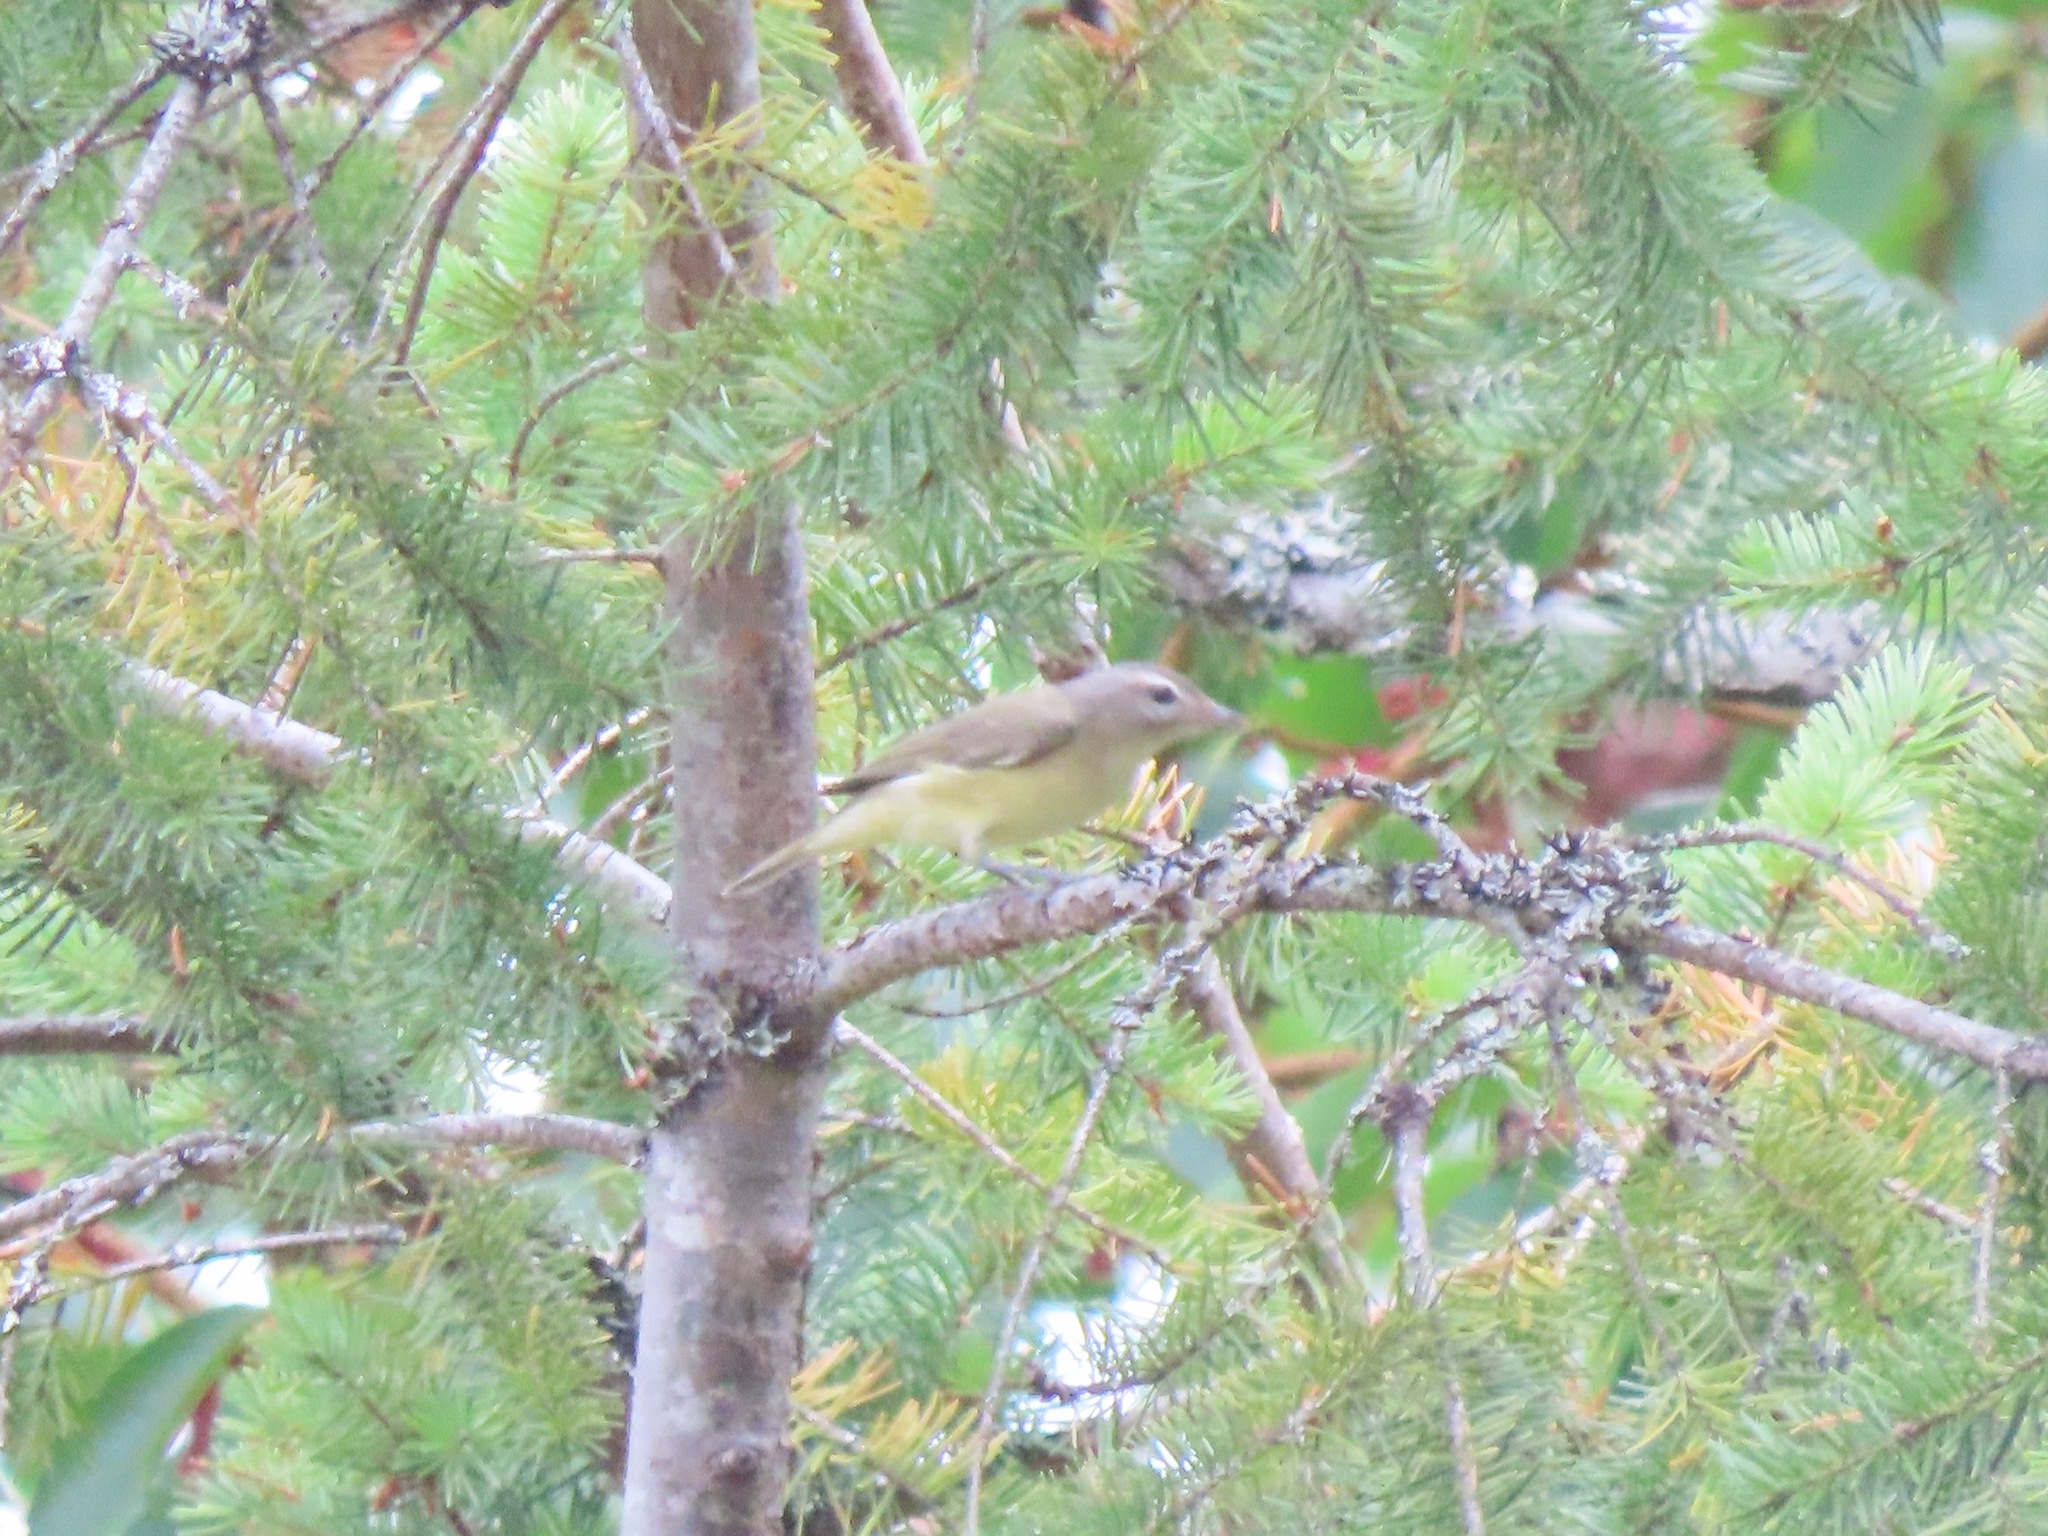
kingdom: Animalia
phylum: Chordata
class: Aves
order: Passeriformes
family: Vireonidae
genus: Vireo
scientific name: Vireo gilvus
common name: Warbling vireo
